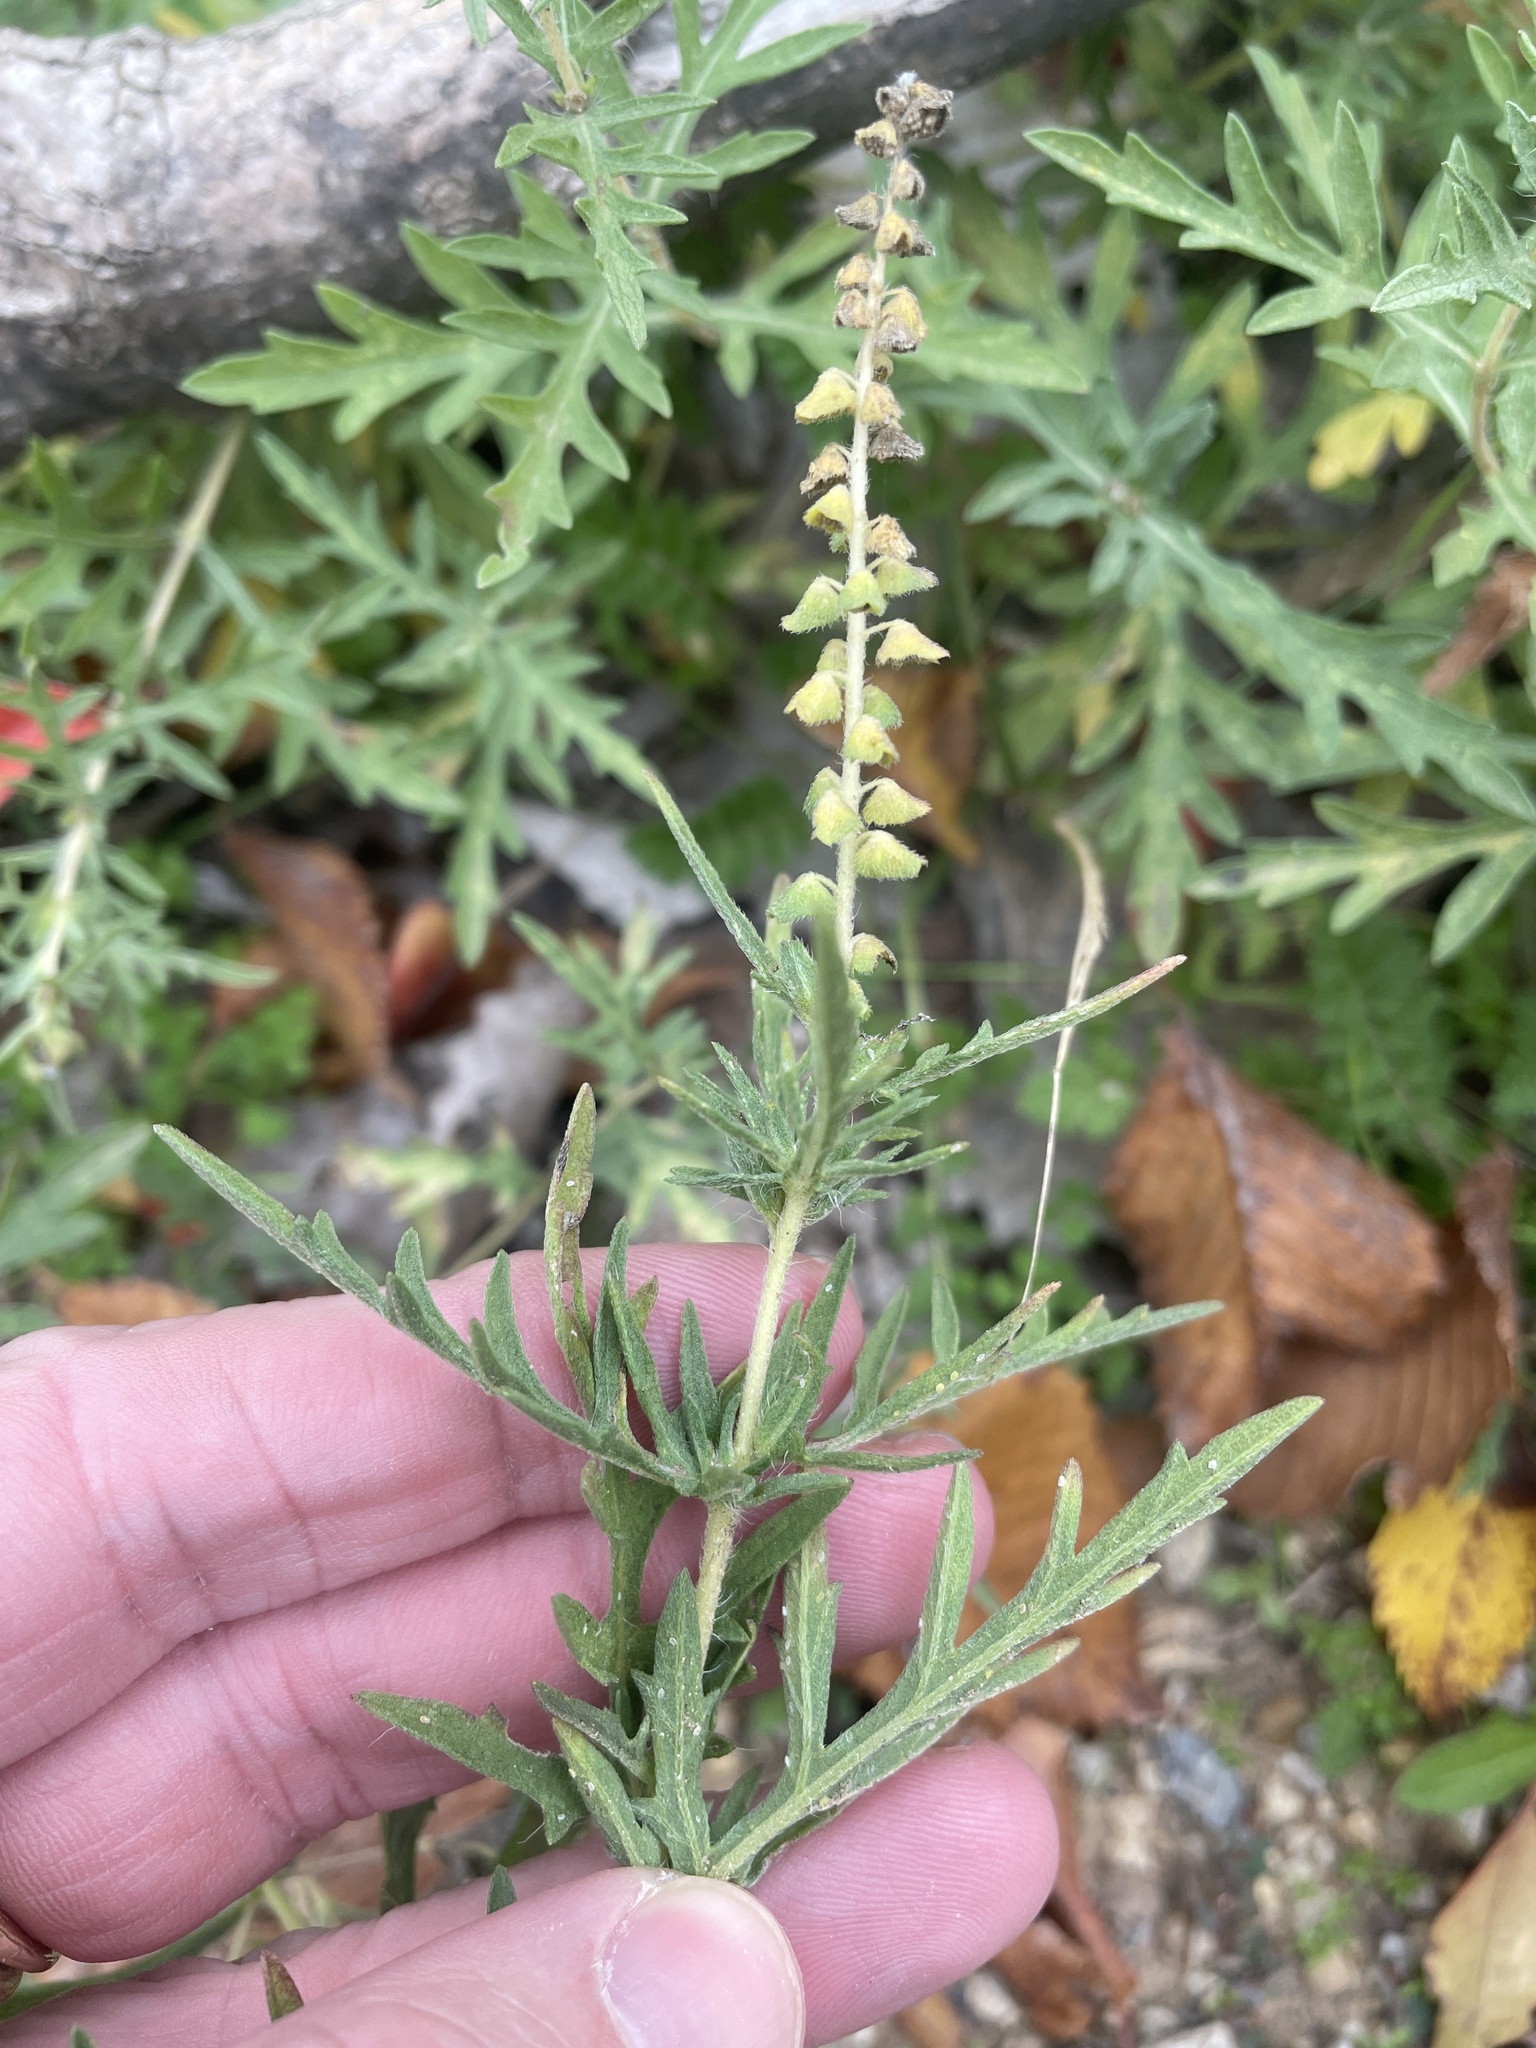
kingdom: Plantae
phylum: Tracheophyta
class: Magnoliopsida
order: Asterales
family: Asteraceae
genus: Ambrosia
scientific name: Ambrosia psilostachya
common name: Perennial ragweed
